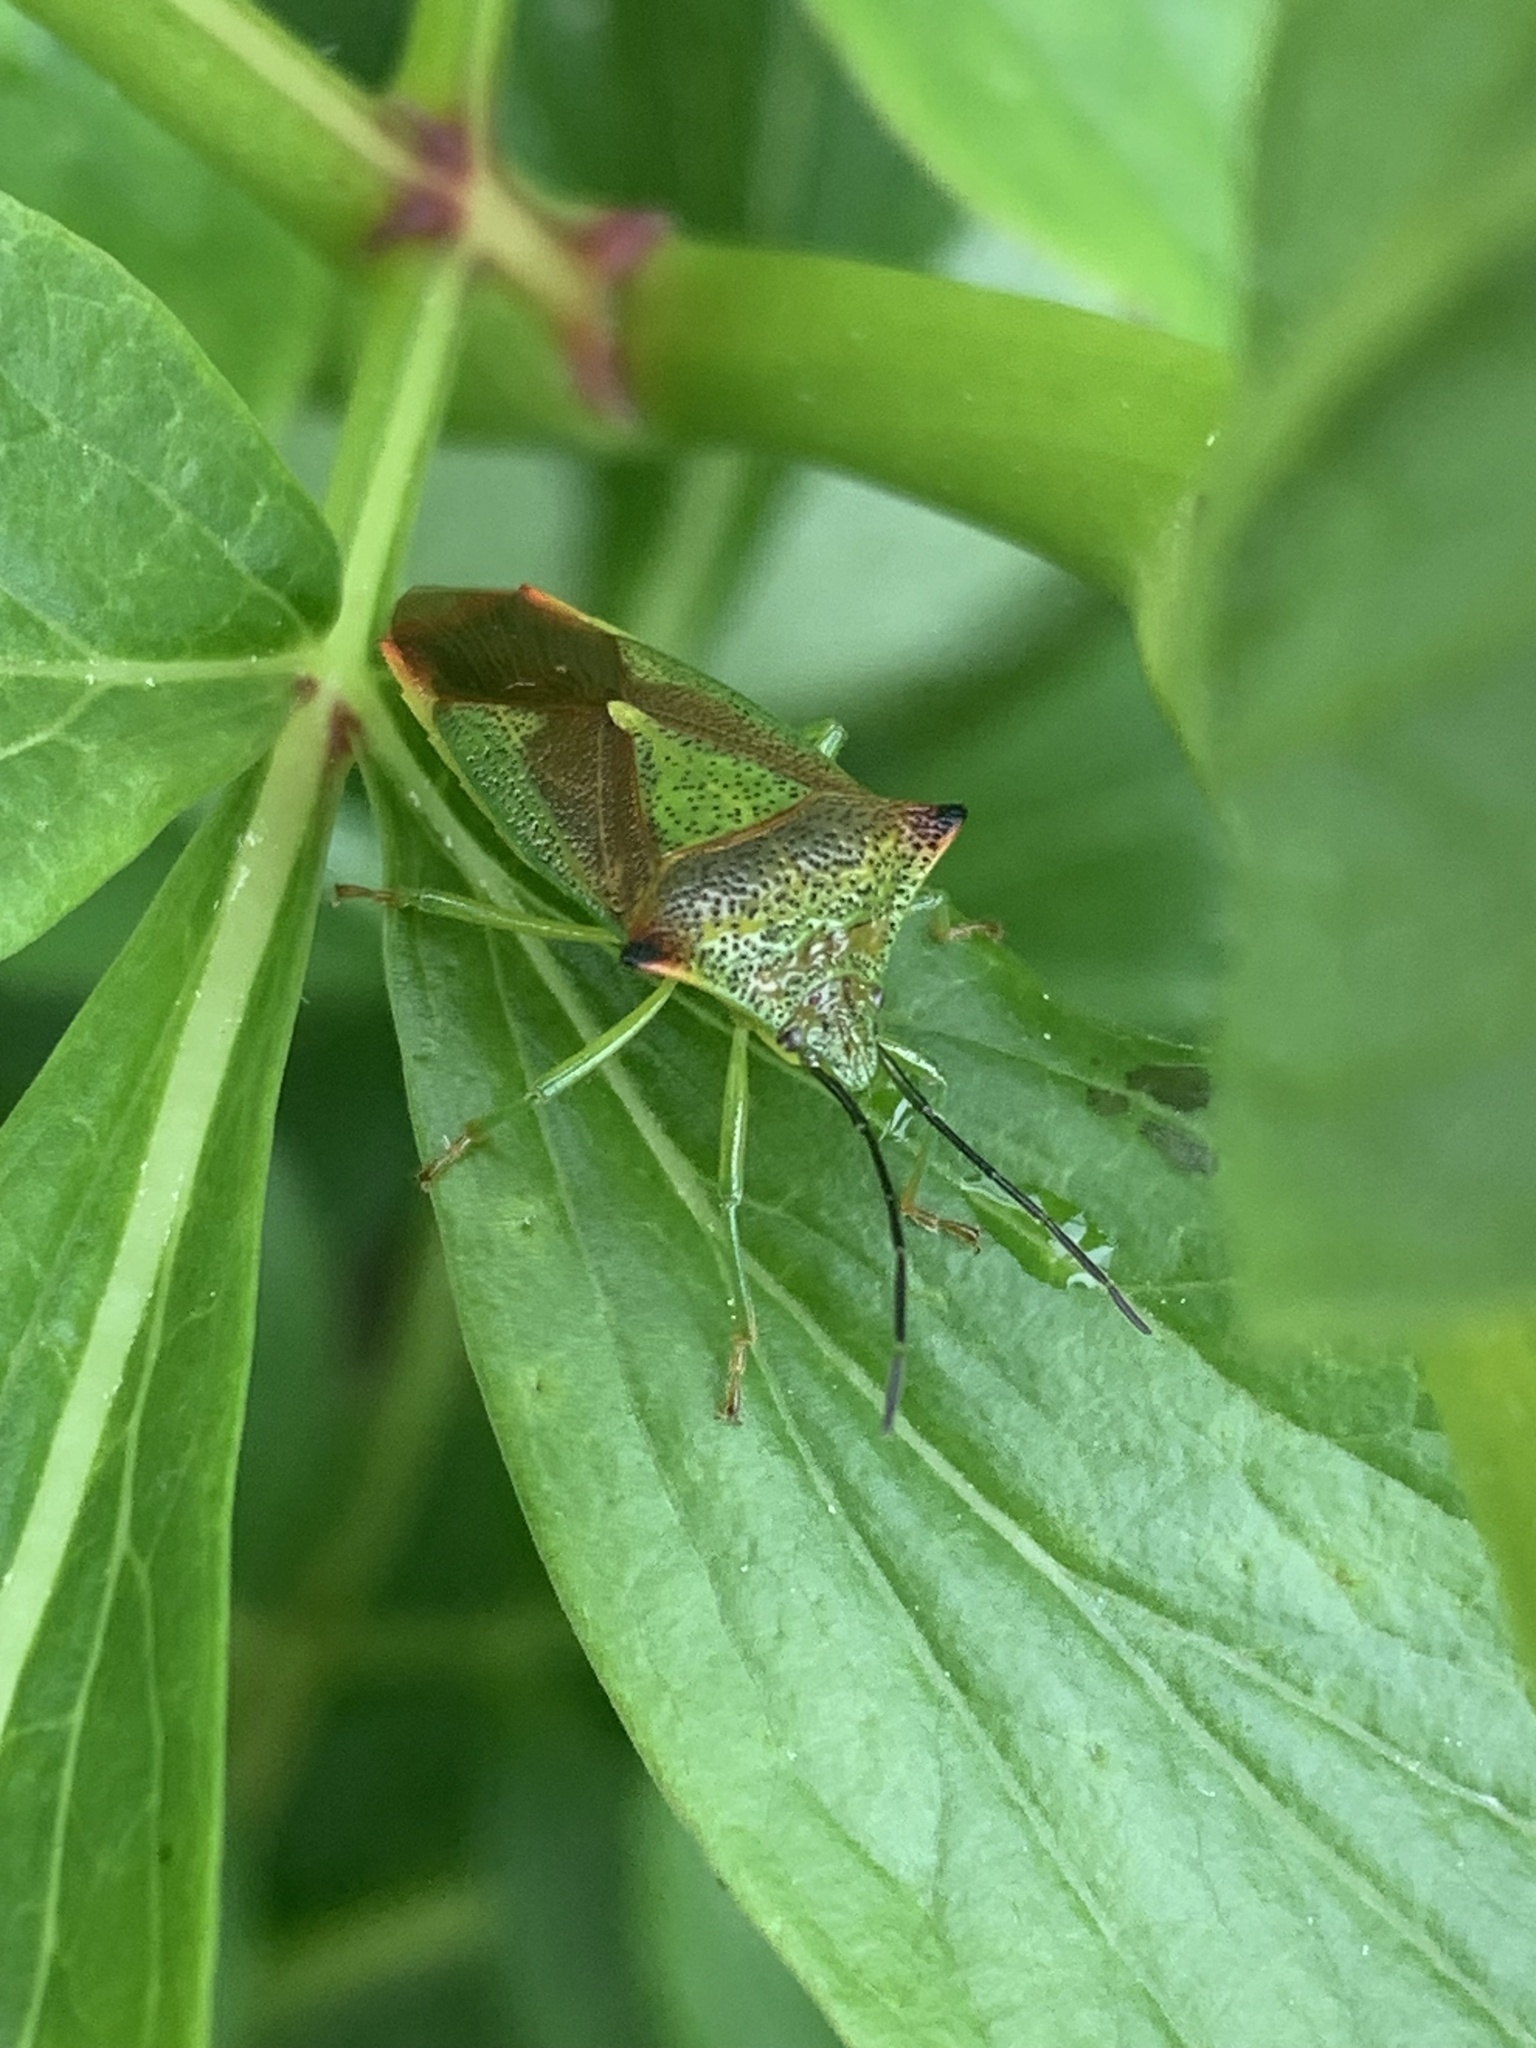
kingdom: Animalia
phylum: Arthropoda
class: Insecta
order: Hemiptera
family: Acanthosomatidae
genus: Acanthosoma
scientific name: Acanthosoma haemorrhoidale
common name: Hawthorn shieldbug
